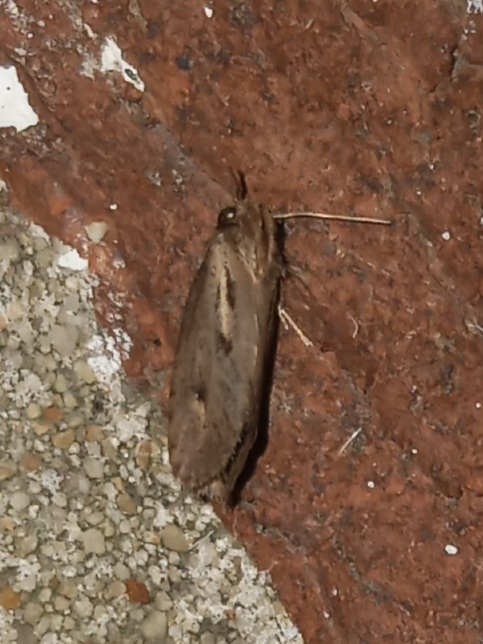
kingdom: Animalia
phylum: Arthropoda
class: Insecta
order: Lepidoptera
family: Tineidae
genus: Acrolophus
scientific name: Acrolophus popeanella
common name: Clemens' grass tubeworm moth
